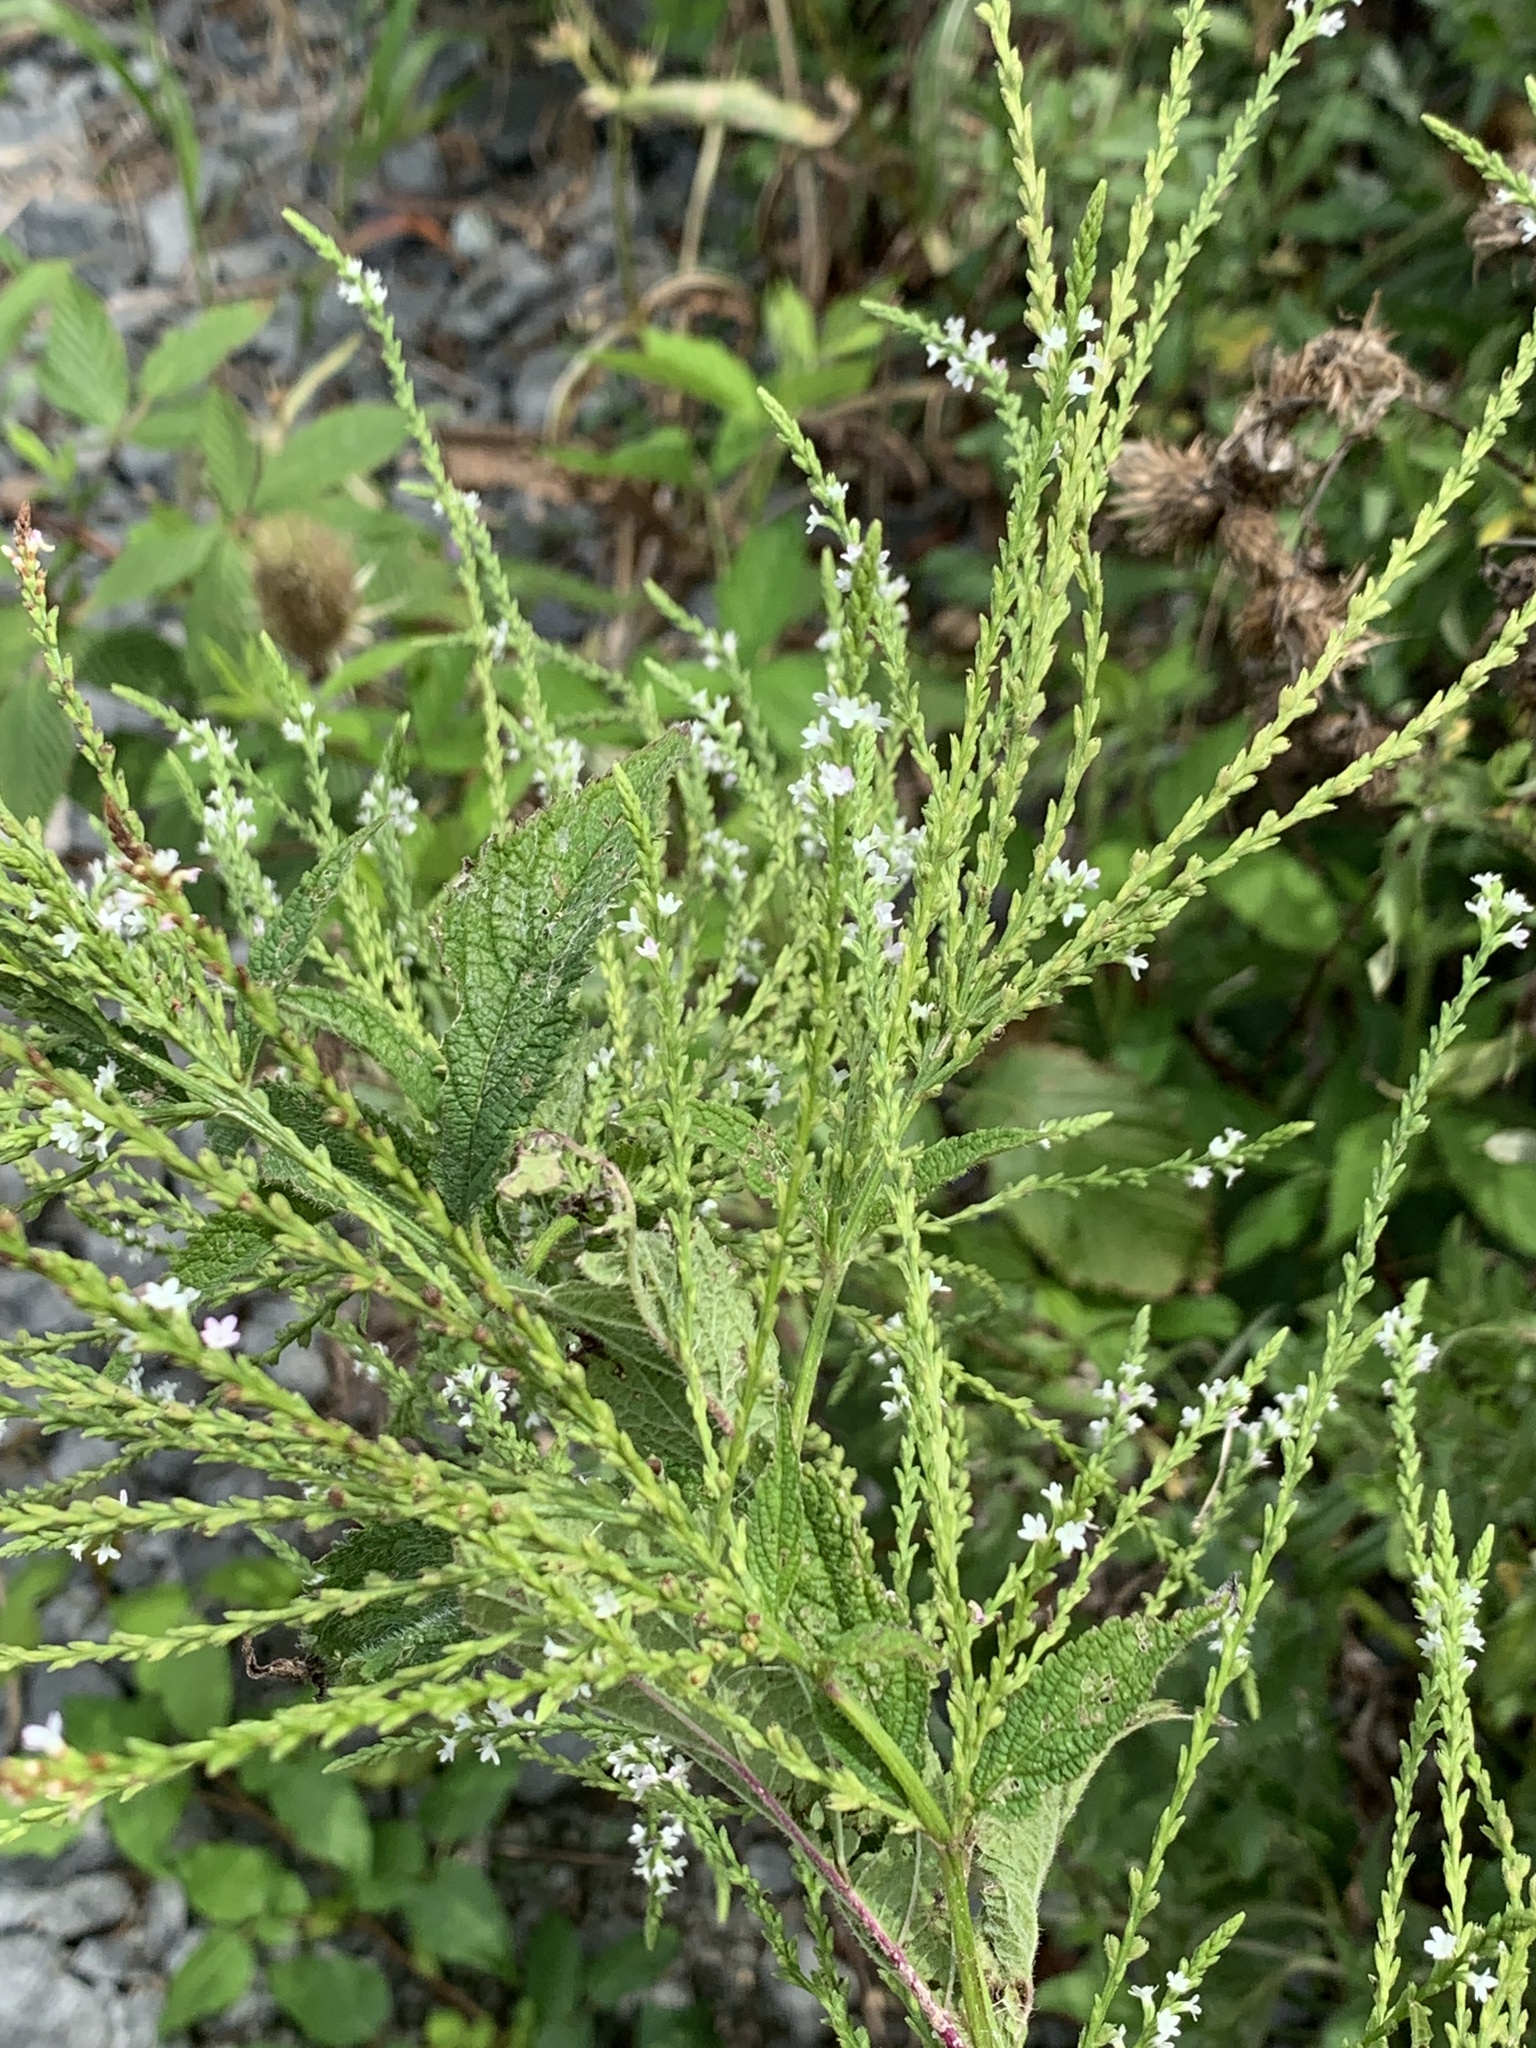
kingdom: Plantae
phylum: Tracheophyta
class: Magnoliopsida
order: Lamiales
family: Verbenaceae
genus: Verbena
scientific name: Verbena urticifolia
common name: Nettle-leaved vervain
